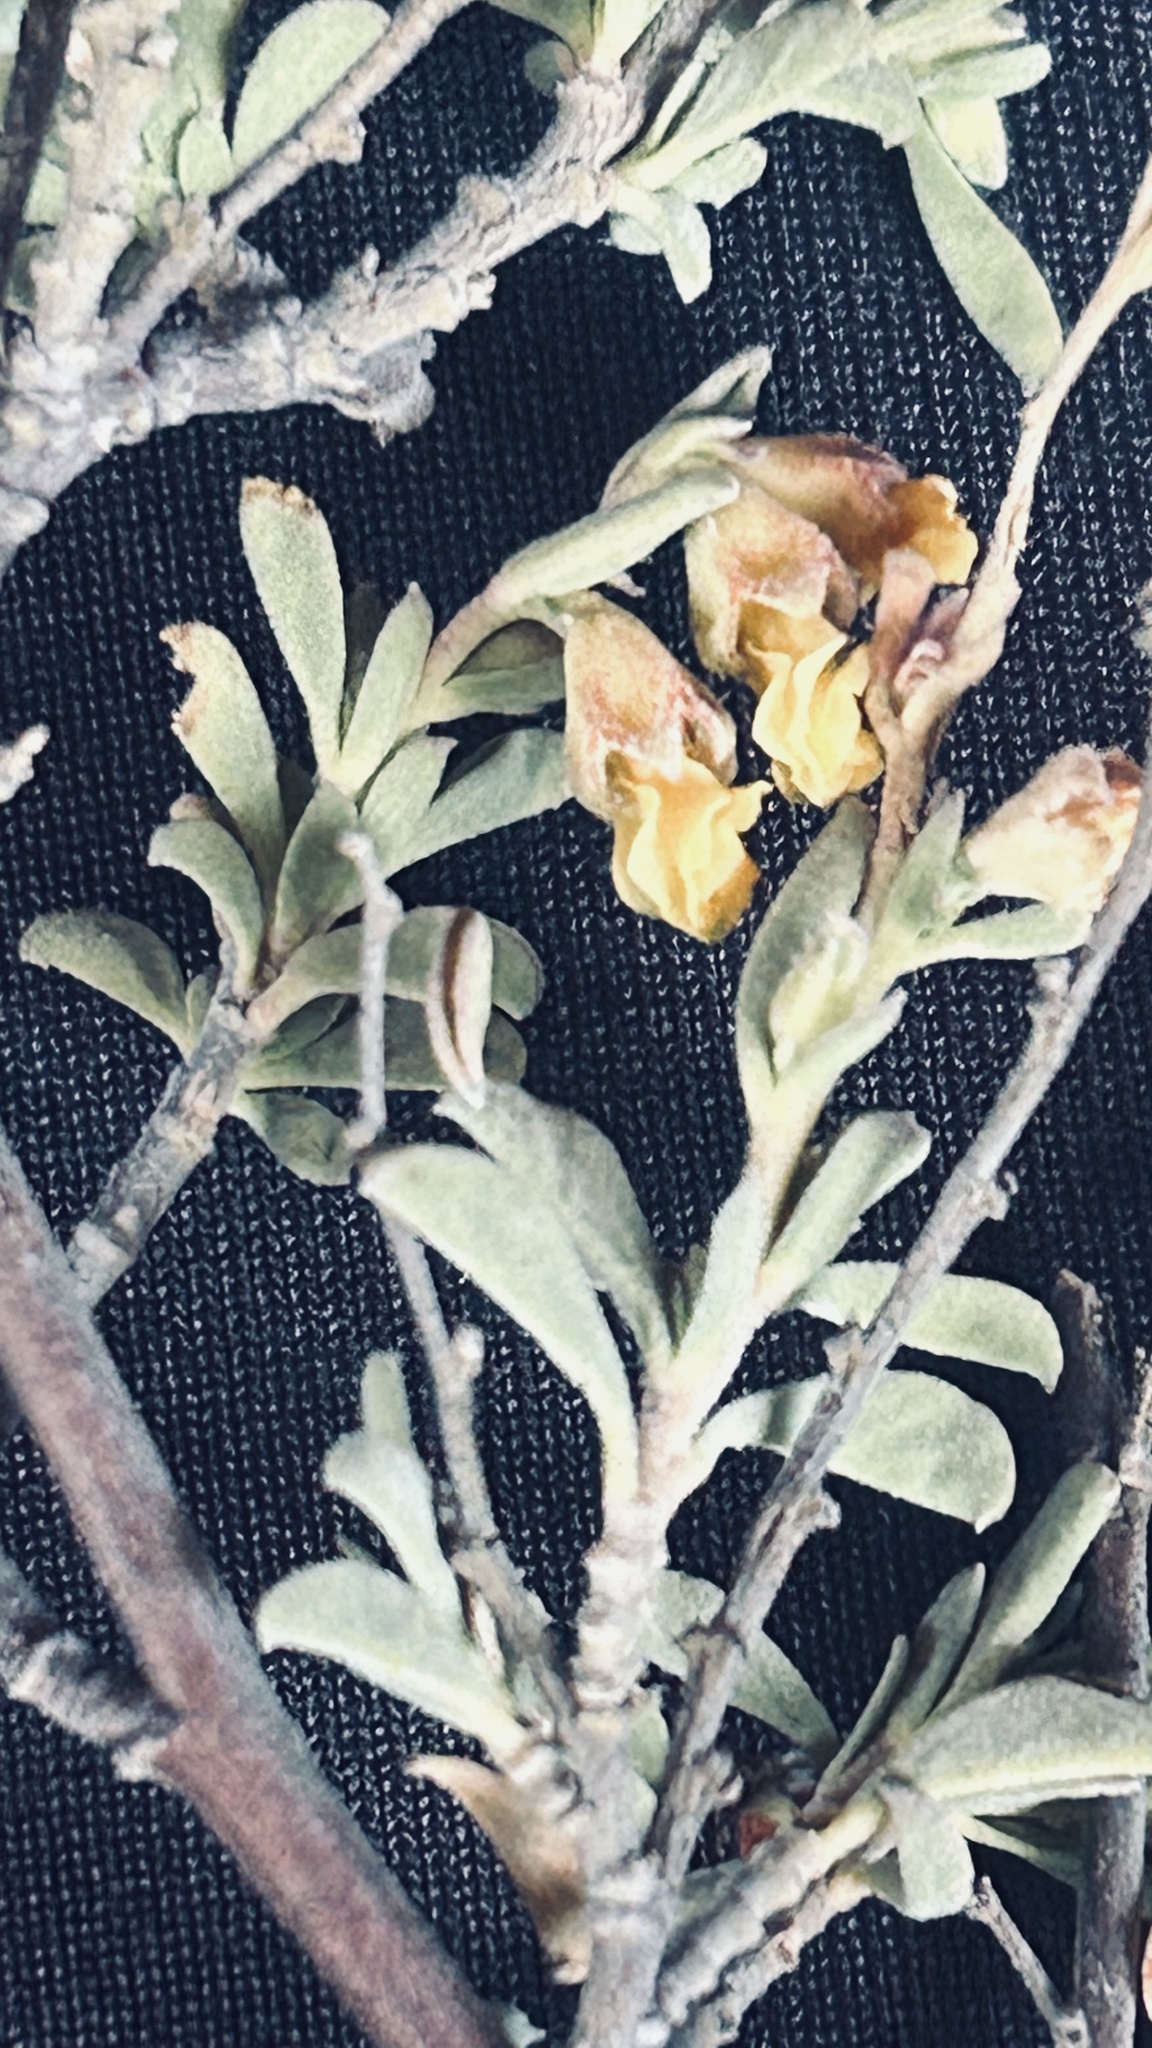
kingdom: Plantae
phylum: Tracheophyta
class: Magnoliopsida
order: Malvales
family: Malvaceae
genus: Hermannia
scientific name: Hermannia diversistipula
